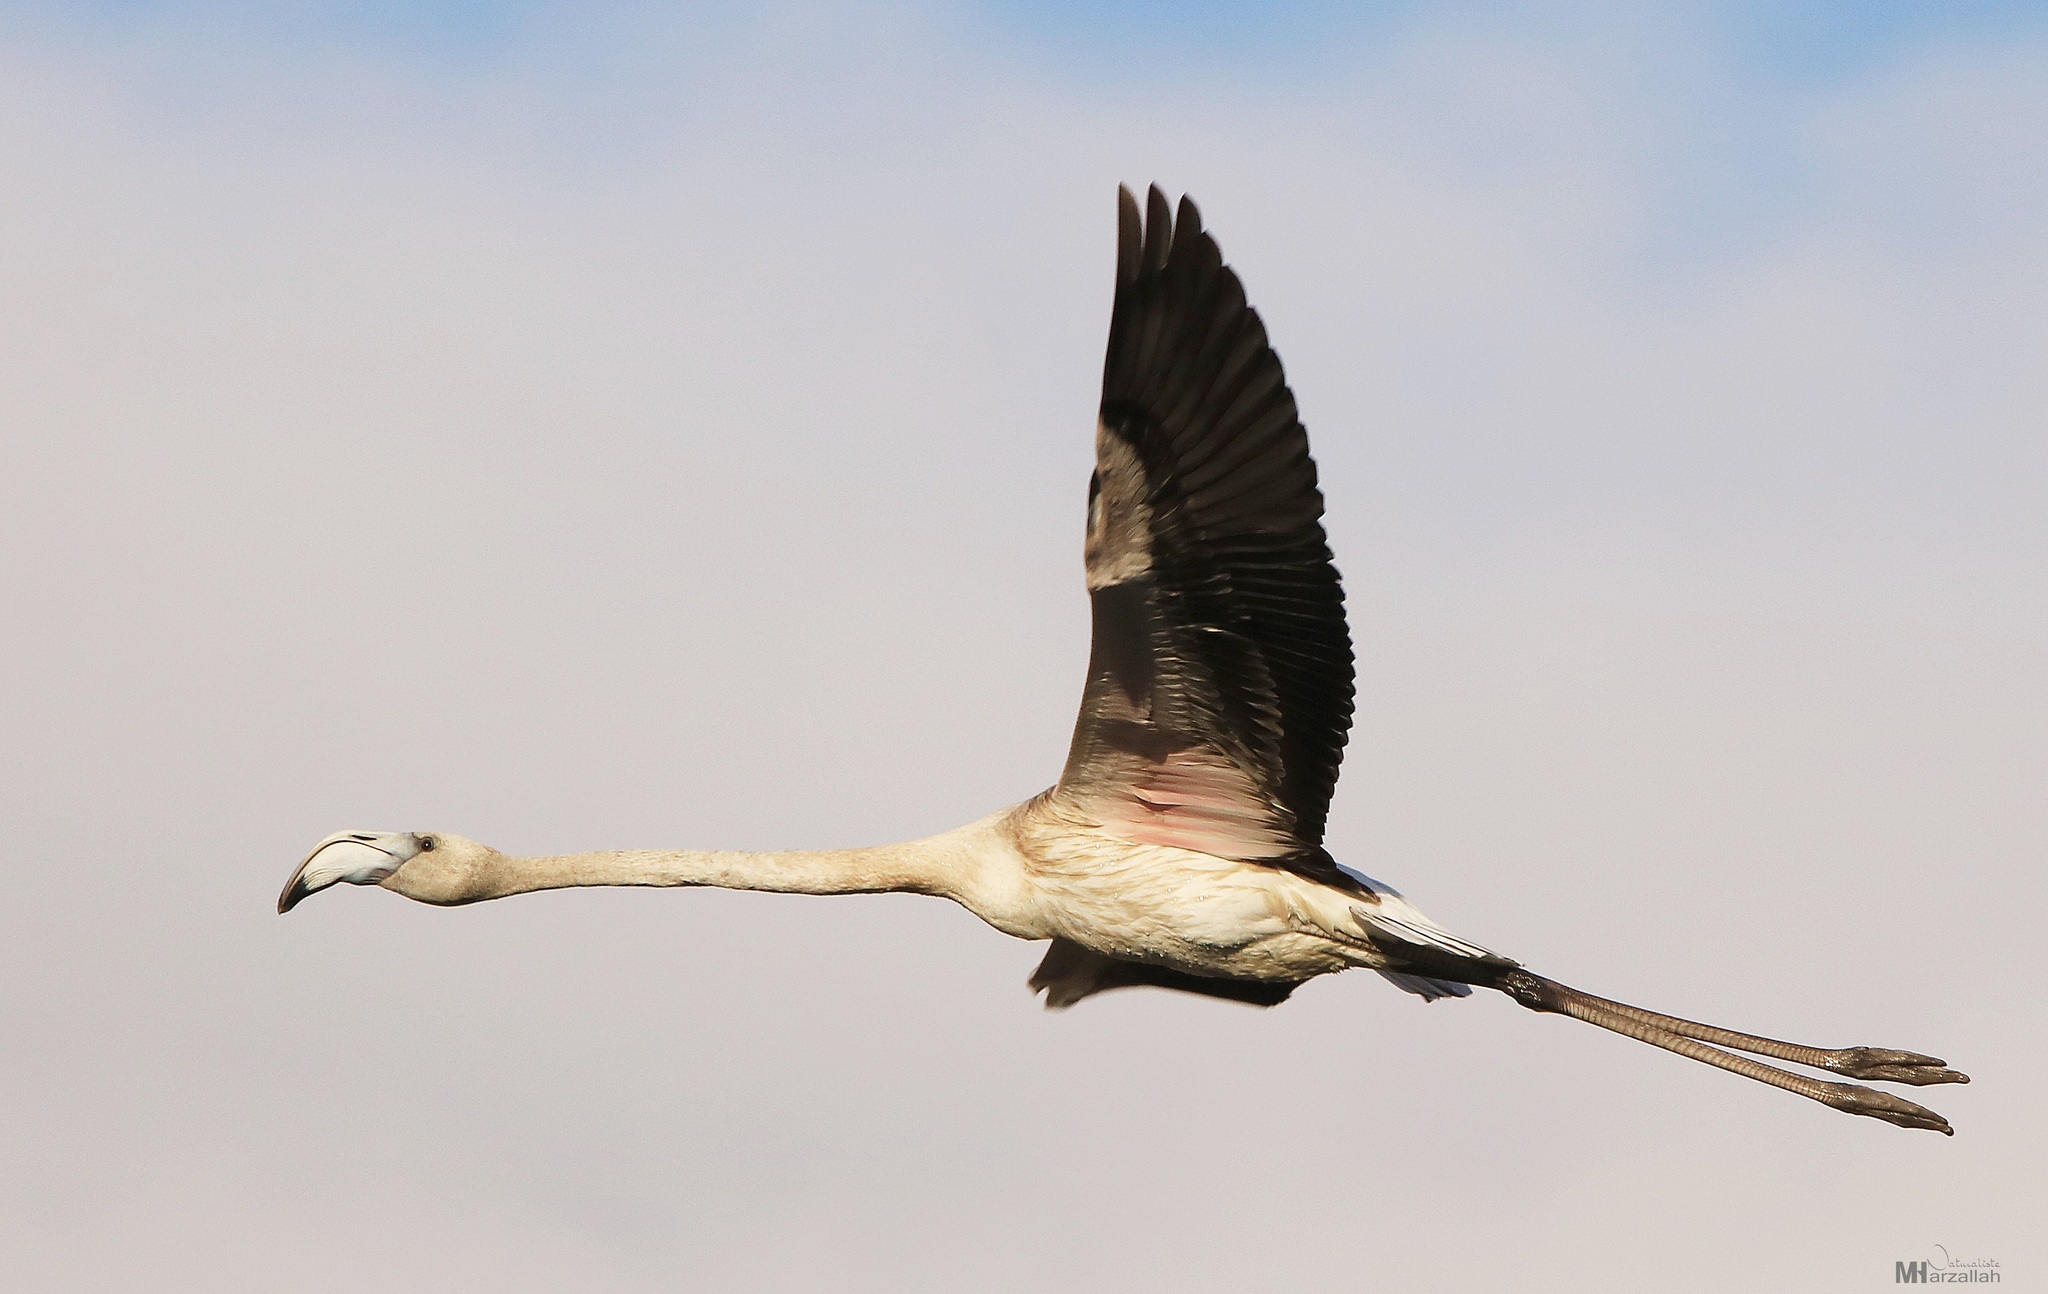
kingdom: Animalia
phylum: Chordata
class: Aves
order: Phoenicopteriformes
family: Phoenicopteridae
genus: Phoenicopterus
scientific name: Phoenicopterus roseus
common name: Greater flamingo
